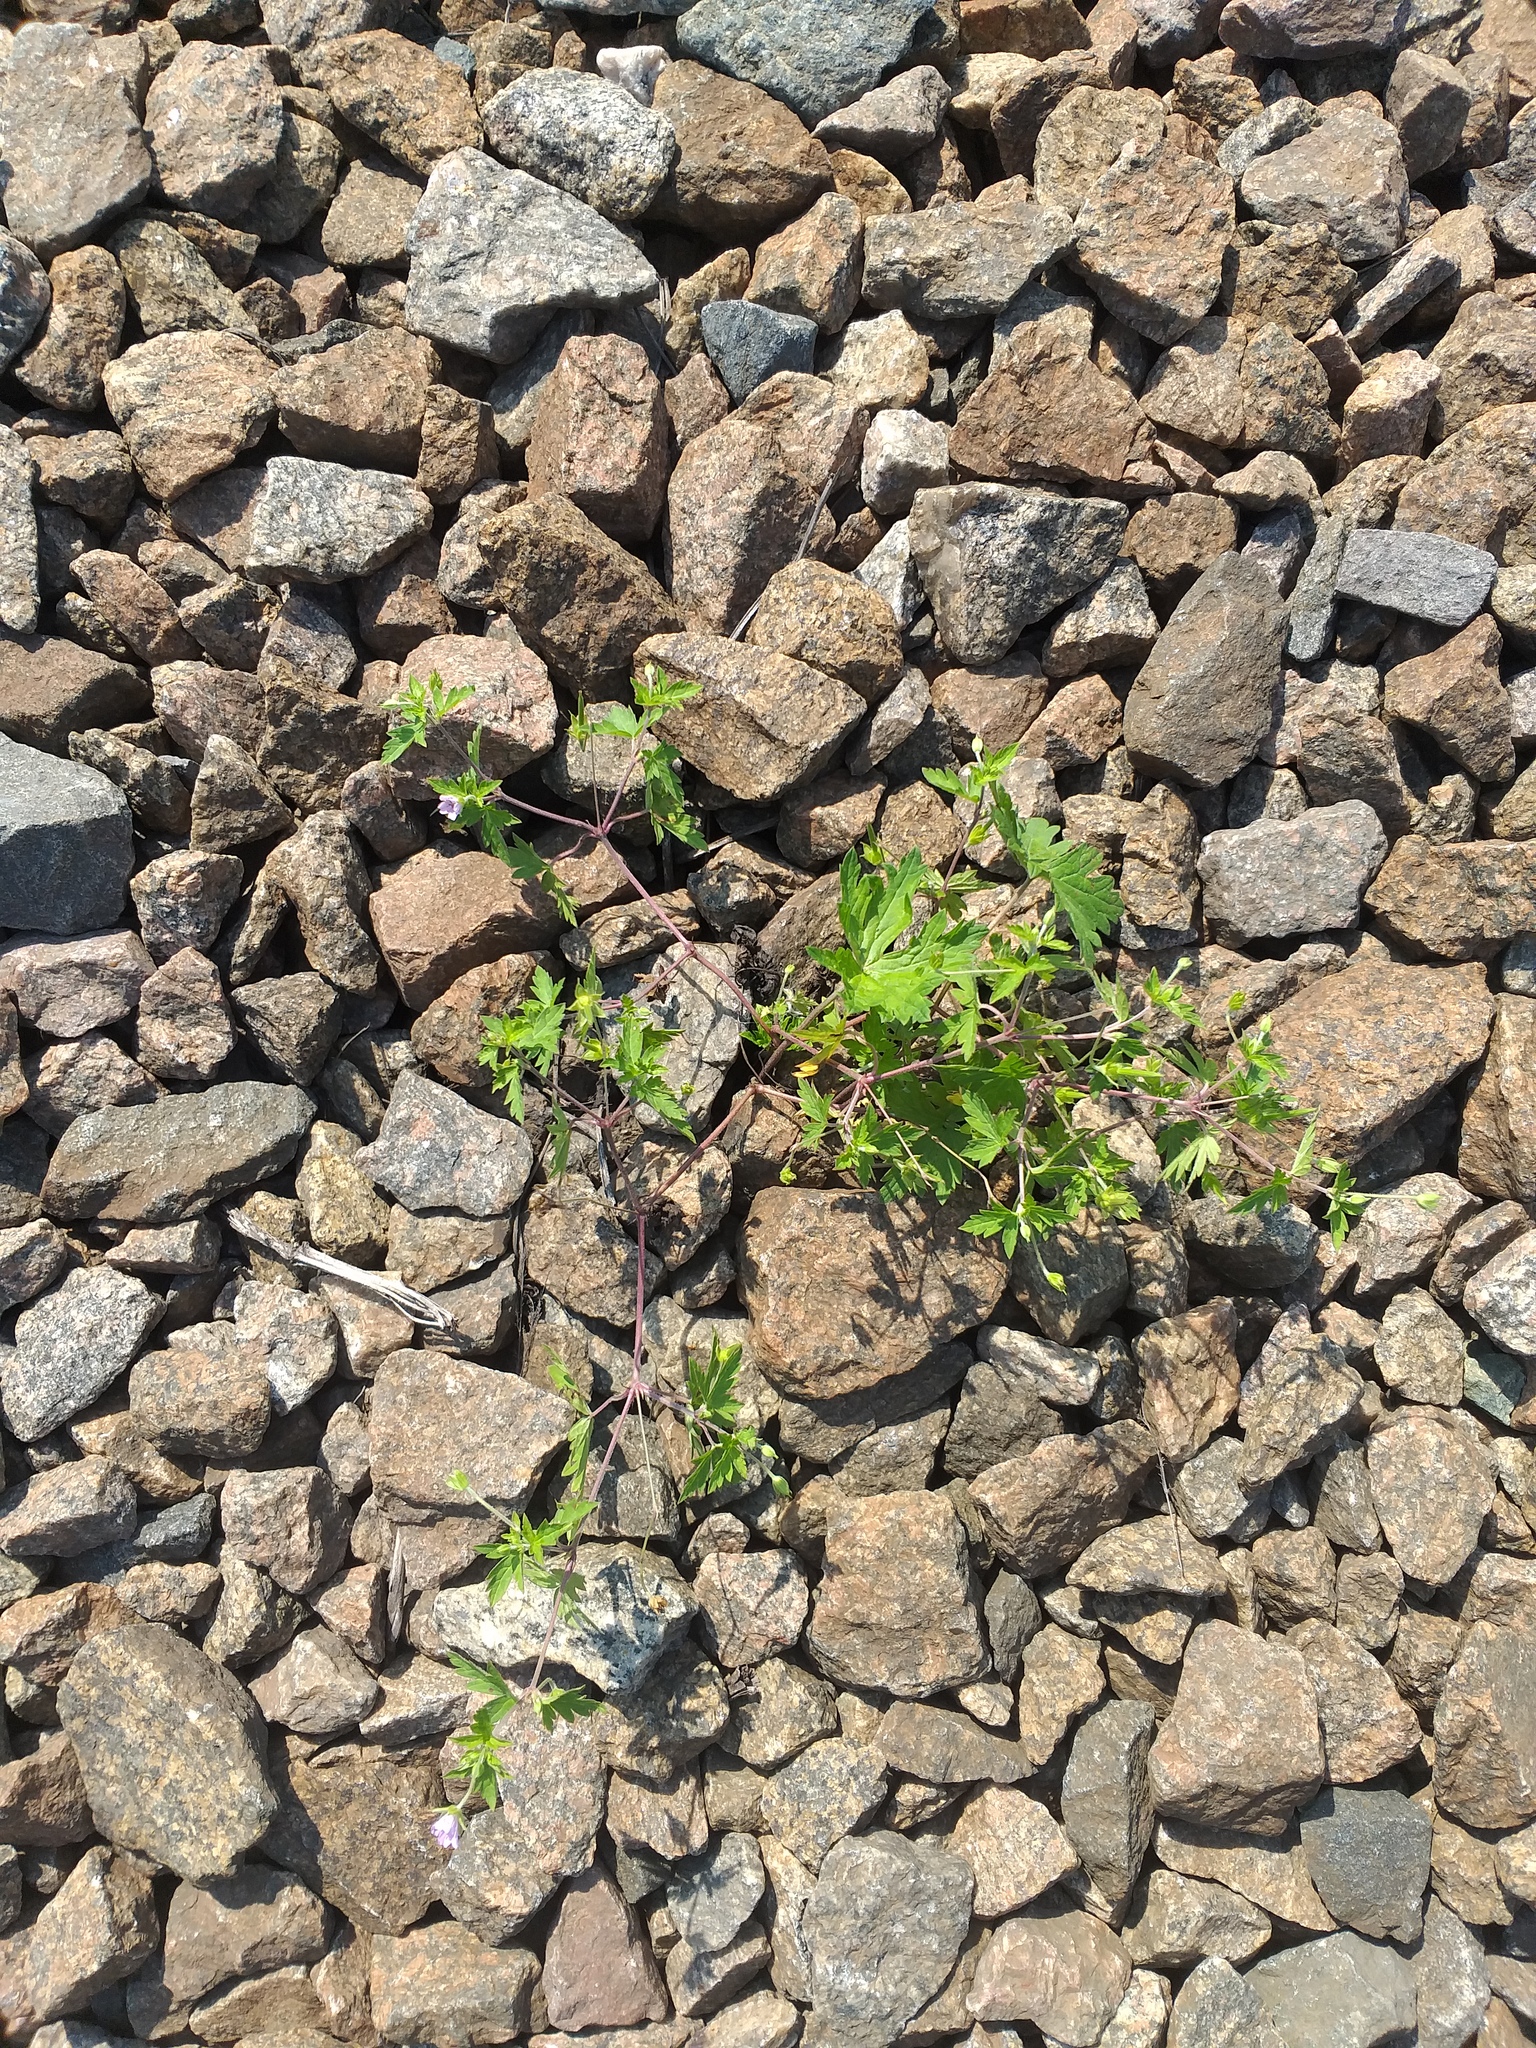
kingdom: Plantae
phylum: Tracheophyta
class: Magnoliopsida
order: Geraniales
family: Geraniaceae
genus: Geranium
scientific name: Geranium sibiricum
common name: Siberian crane's-bill
